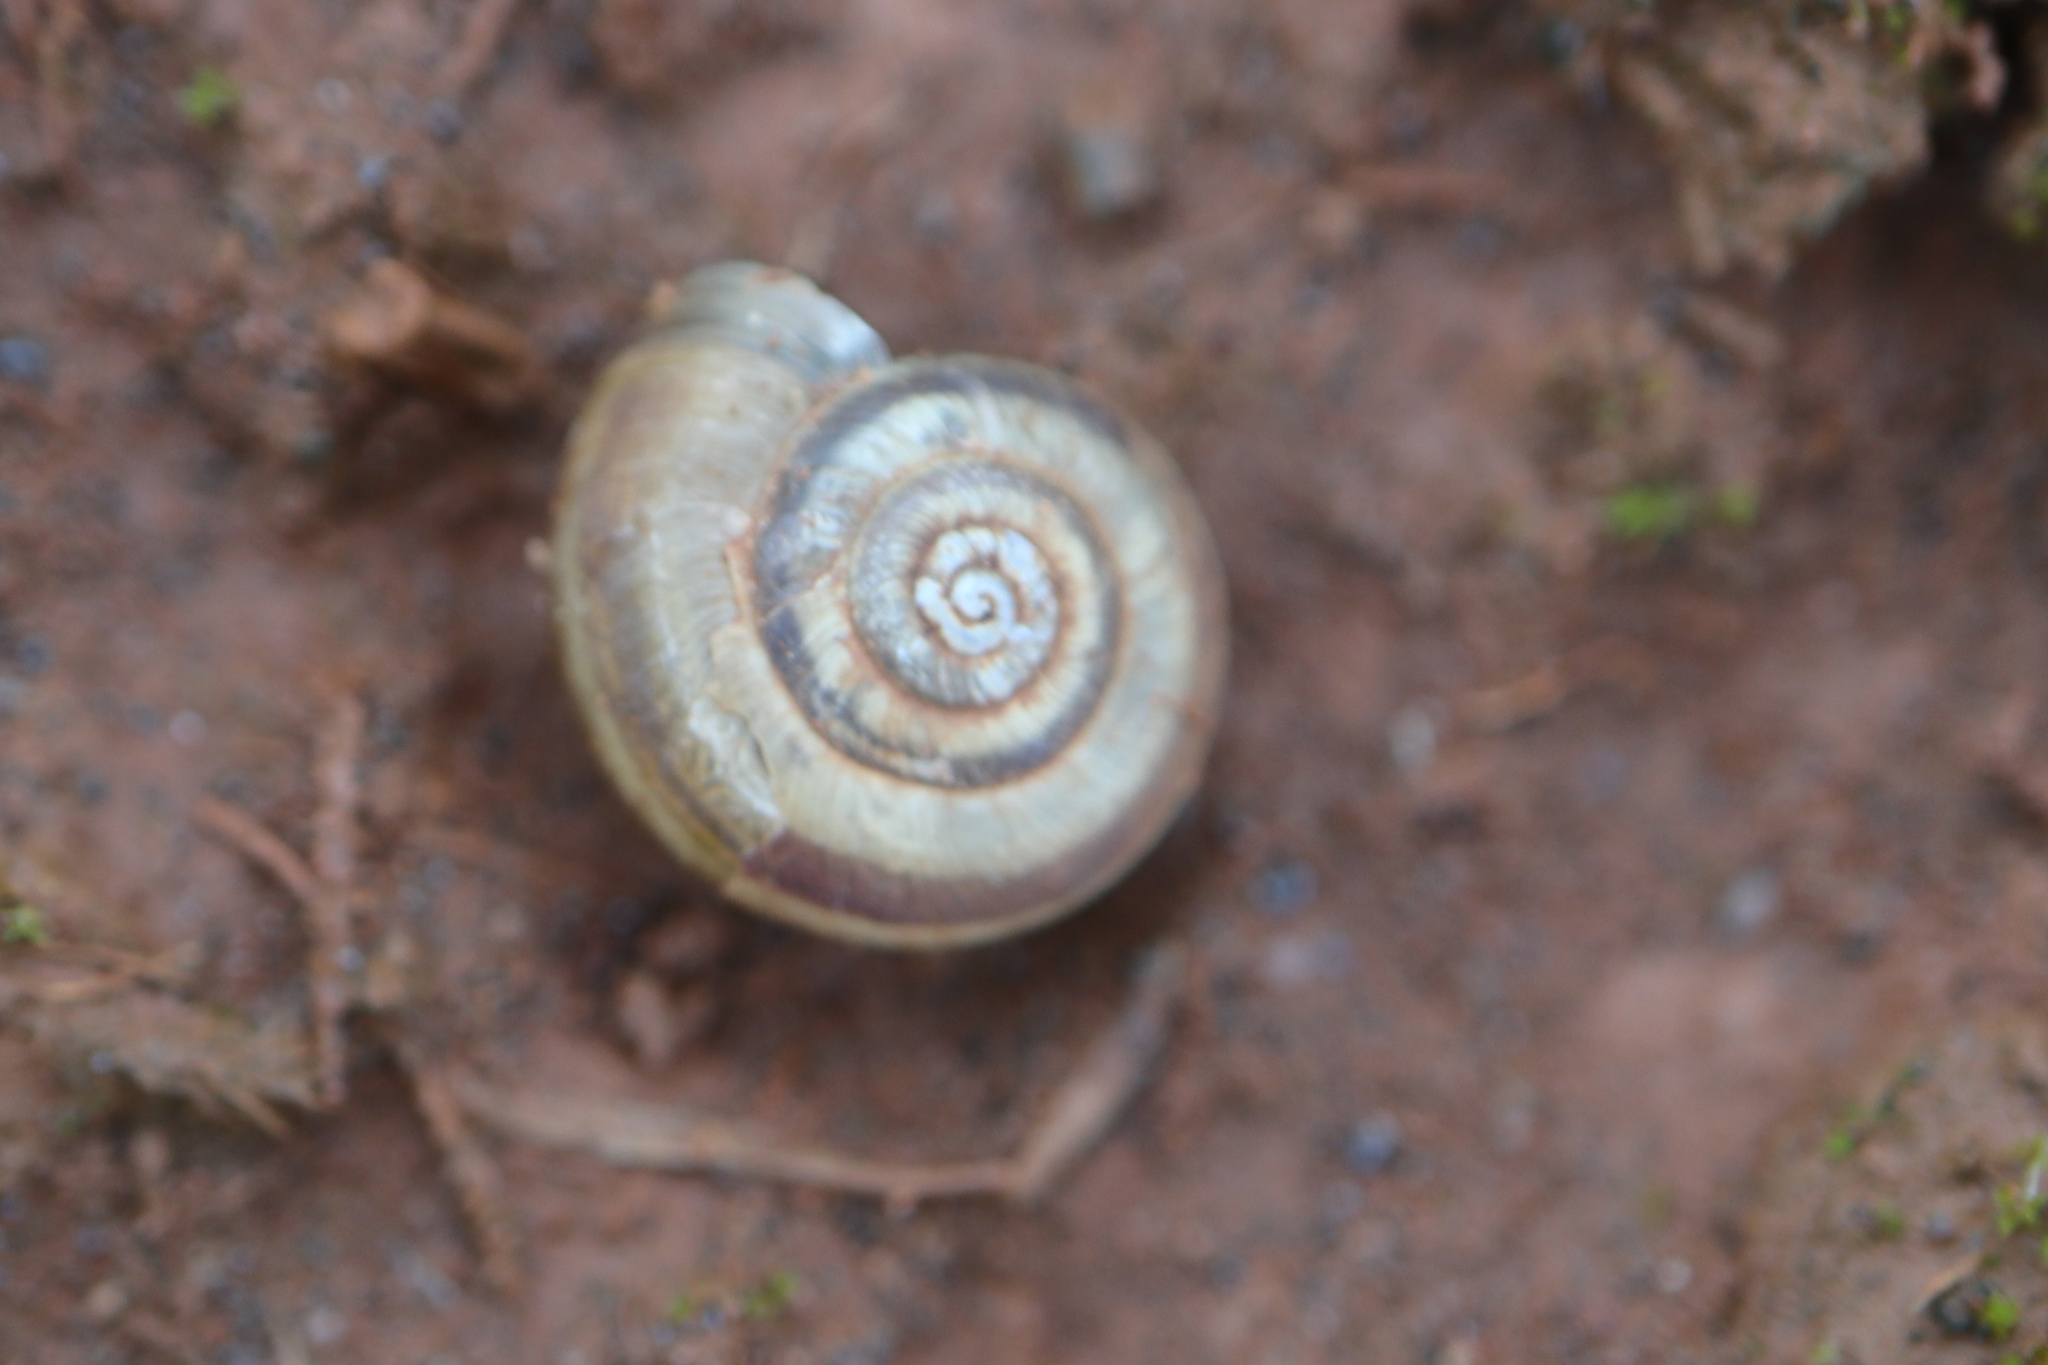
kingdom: Animalia
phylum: Mollusca
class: Gastropoda
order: Stylommatophora
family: Geomitridae
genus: Helicella
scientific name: Helicella itala
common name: Heath snail
